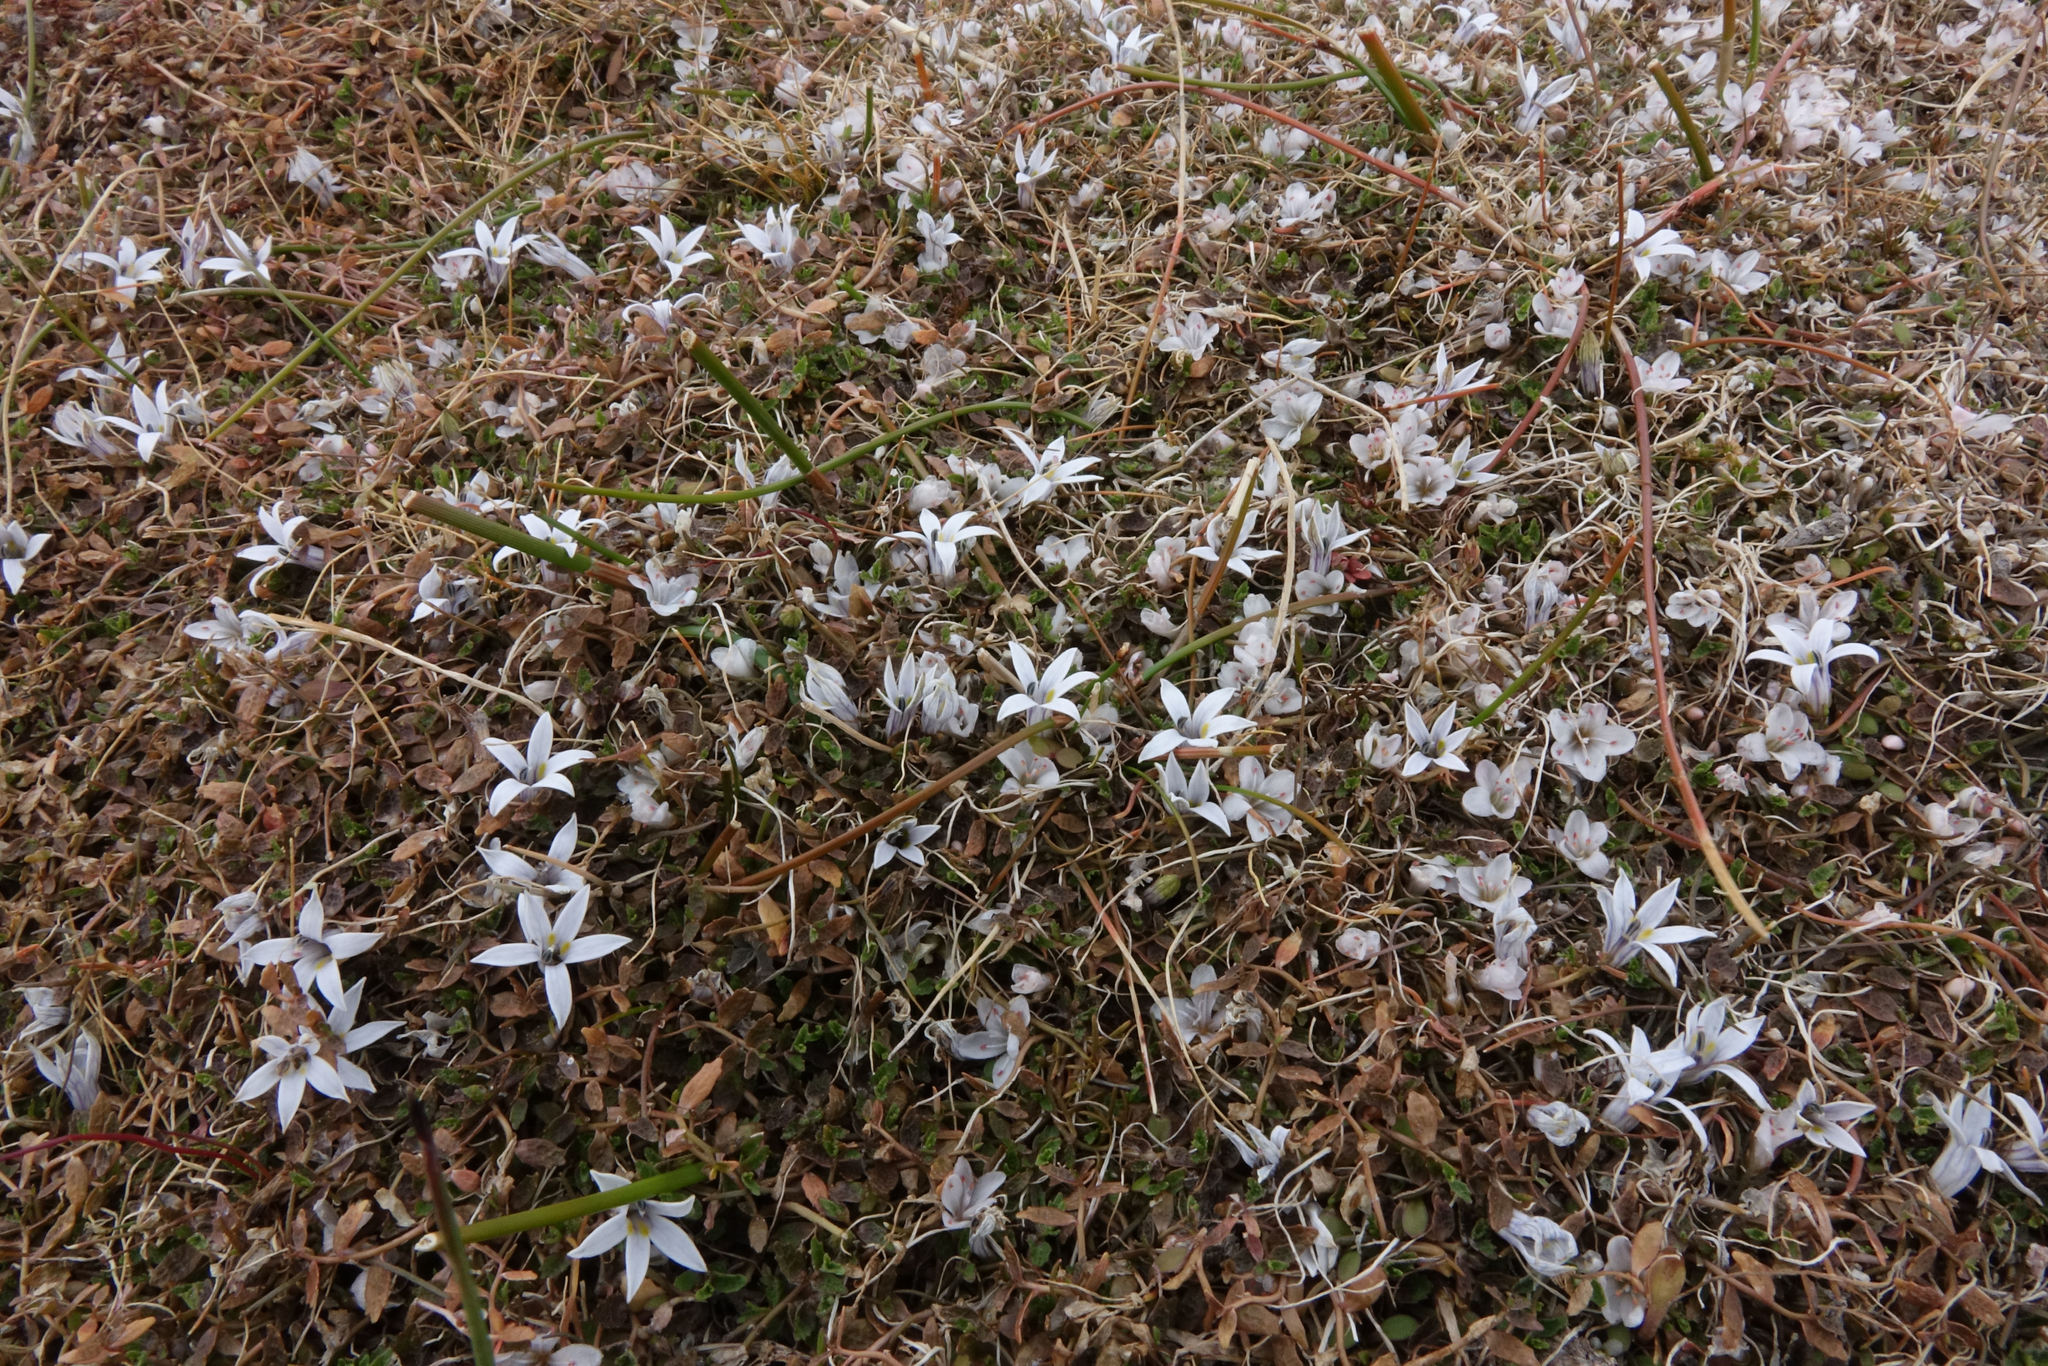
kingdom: Plantae
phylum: Tracheophyta
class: Magnoliopsida
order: Asterales
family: Campanulaceae
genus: Lobelia
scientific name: Lobelia perpusilla
